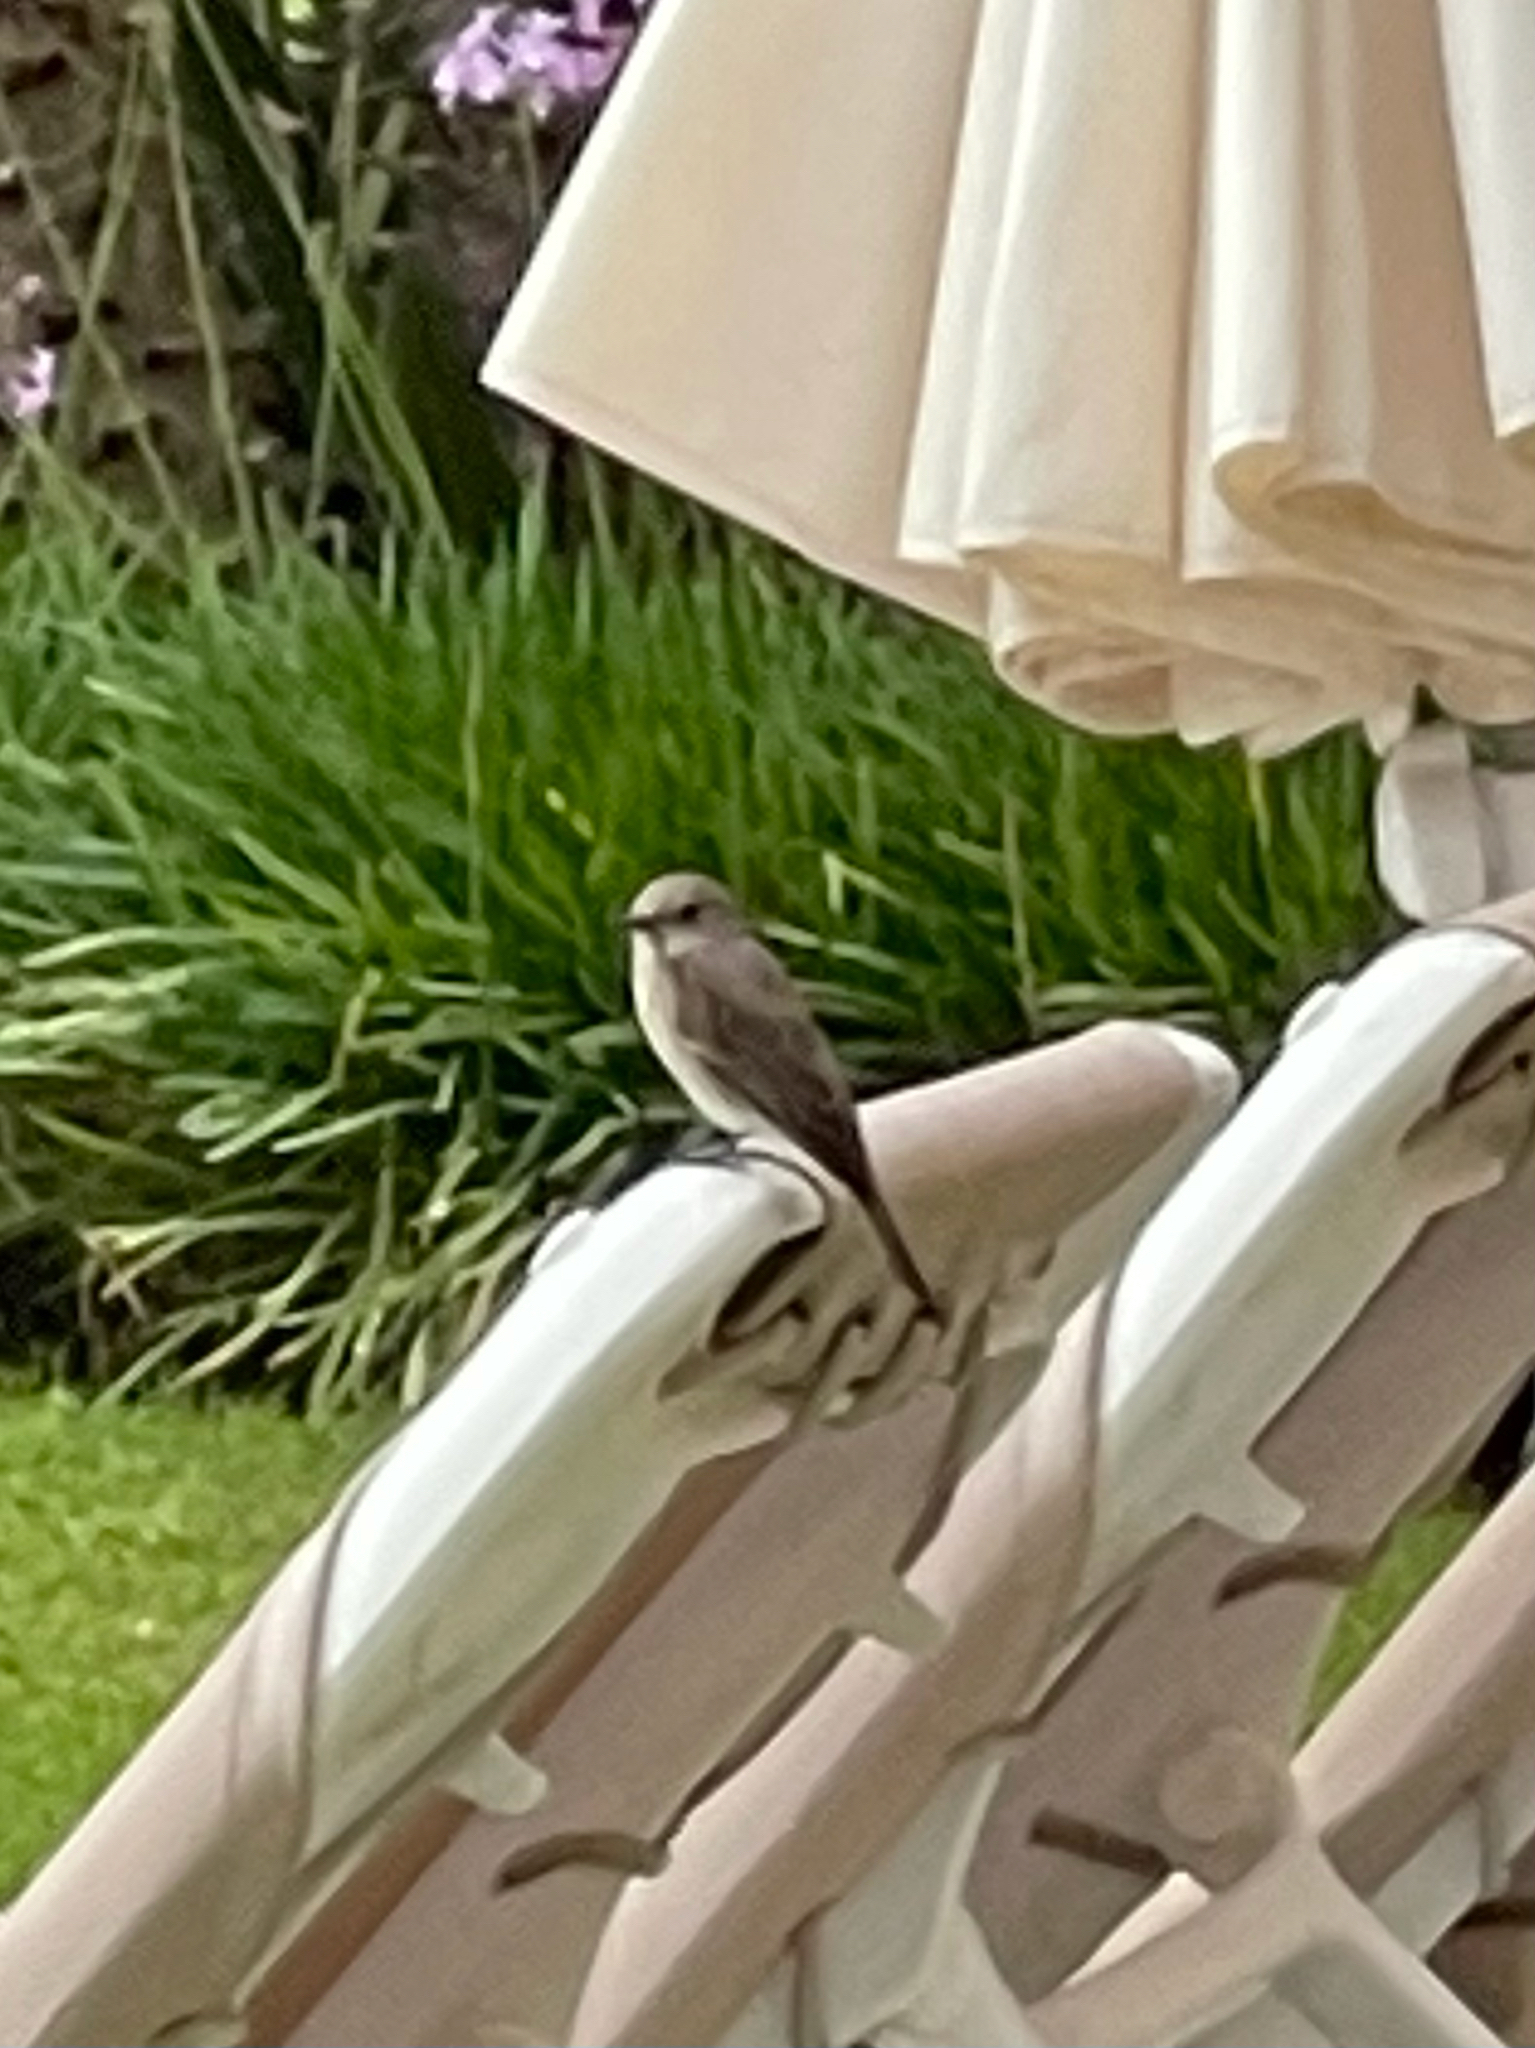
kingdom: Animalia
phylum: Chordata
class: Aves
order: Passeriformes
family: Muscicapidae
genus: Muscicapa
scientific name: Muscicapa striata
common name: Spotted flycatcher
